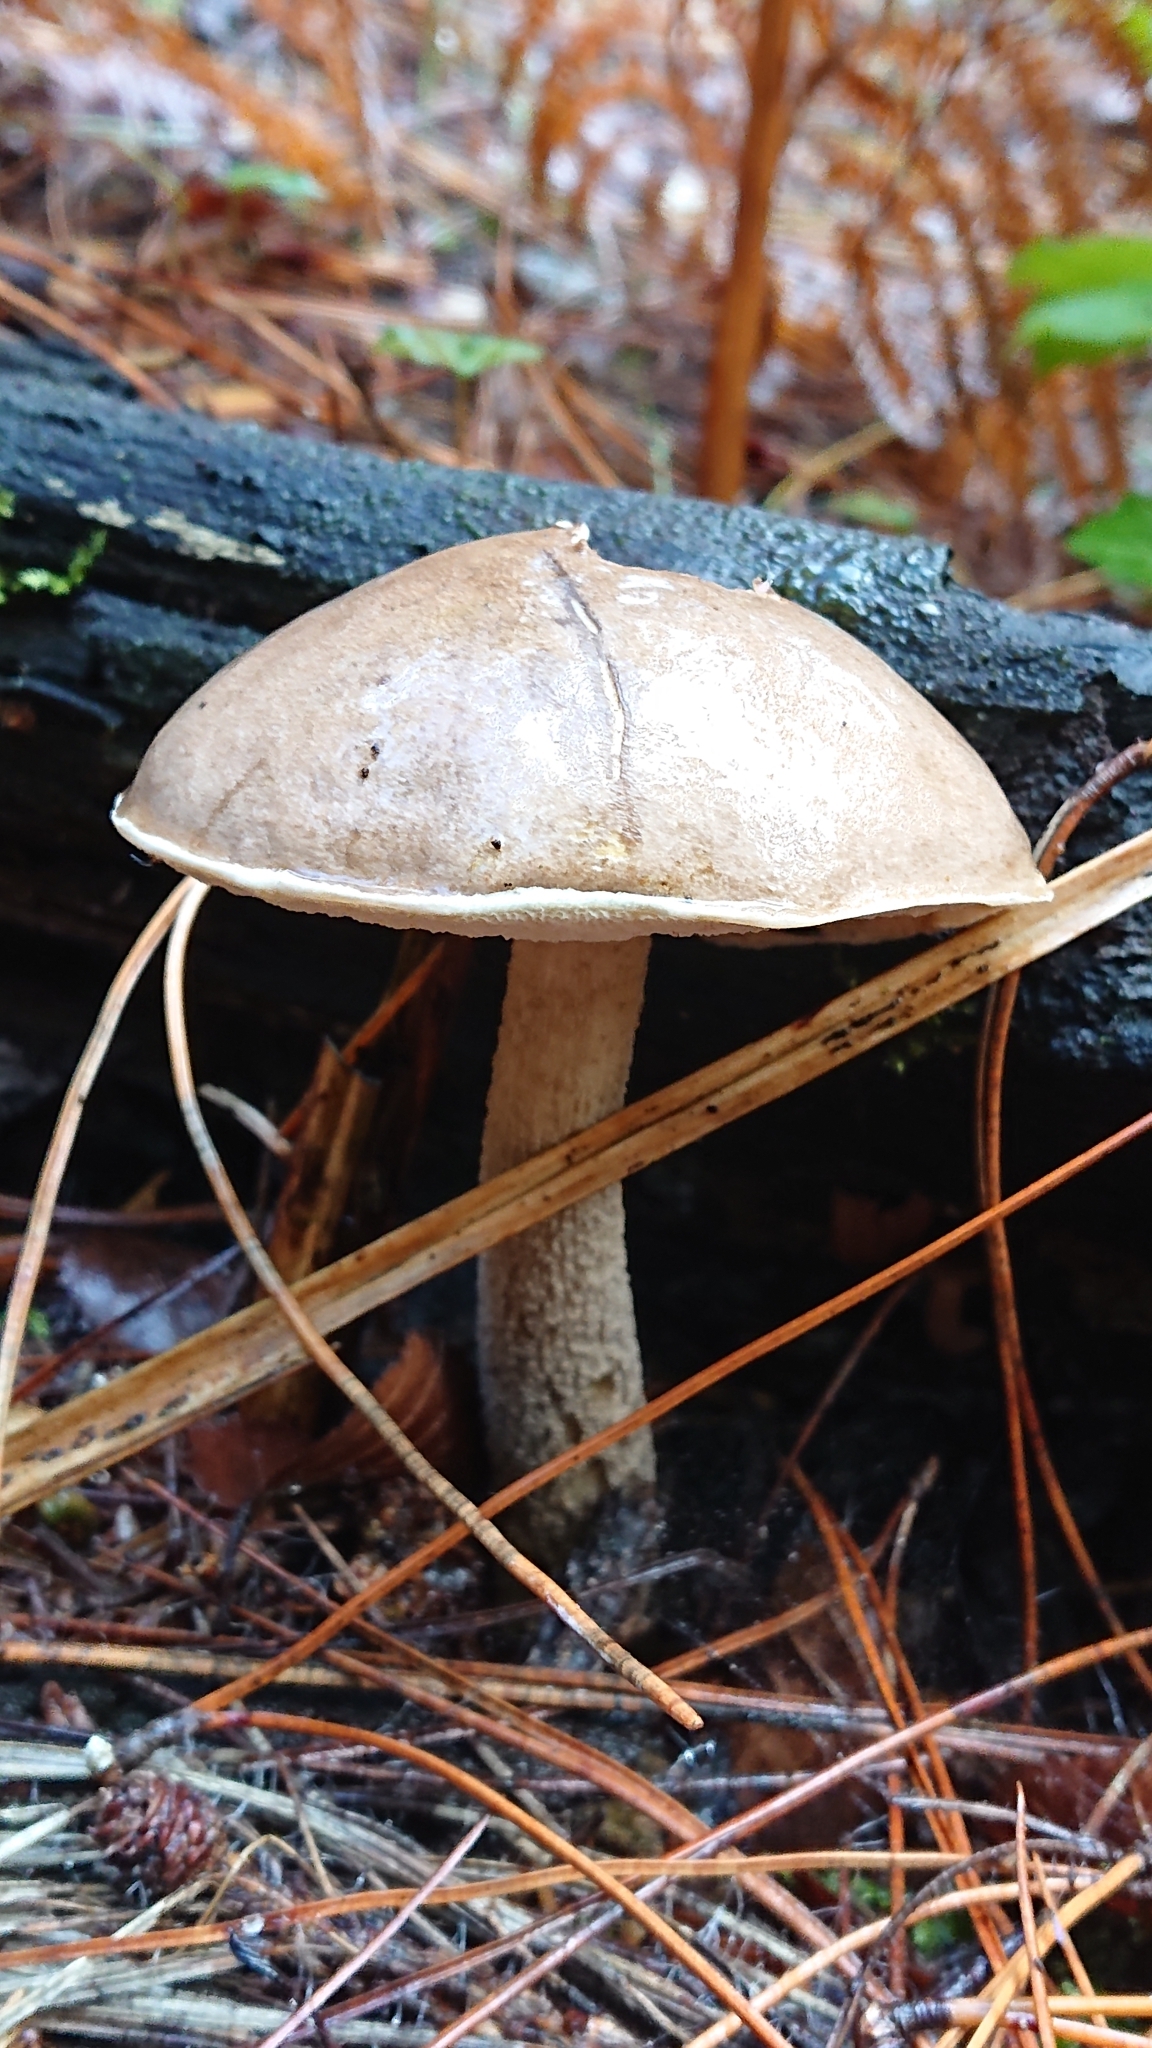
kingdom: Fungi
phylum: Basidiomycota
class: Agaricomycetes
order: Boletales
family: Boletaceae
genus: Leccinum
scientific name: Leccinum holopus
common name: Ghost bolete
